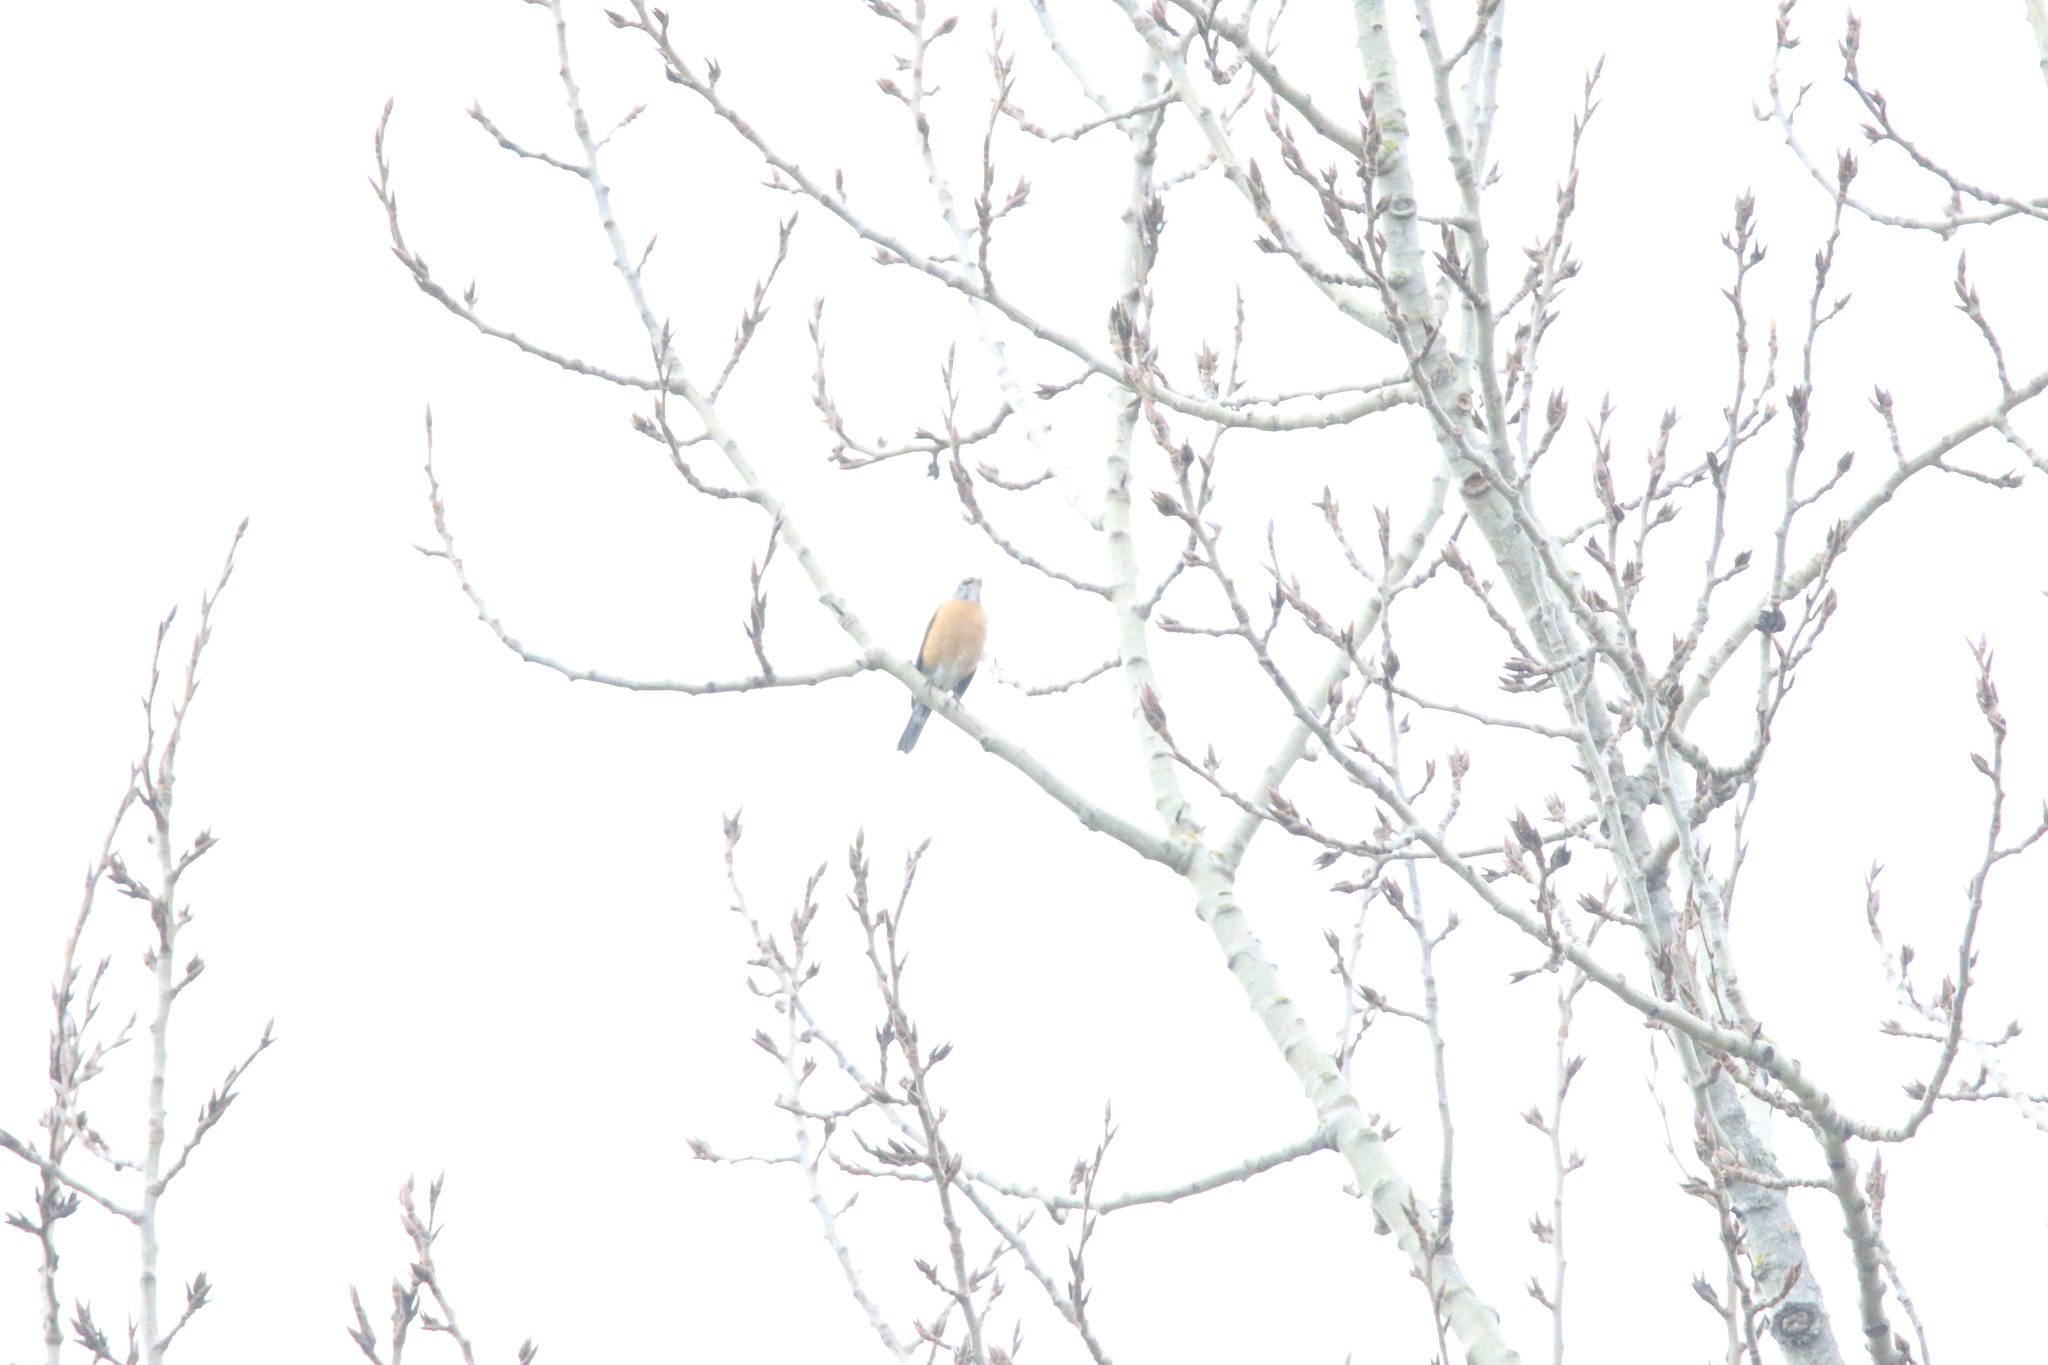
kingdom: Animalia
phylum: Chordata
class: Aves
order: Passeriformes
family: Turdidae
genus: Turdus
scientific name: Turdus migratorius
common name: American robin
